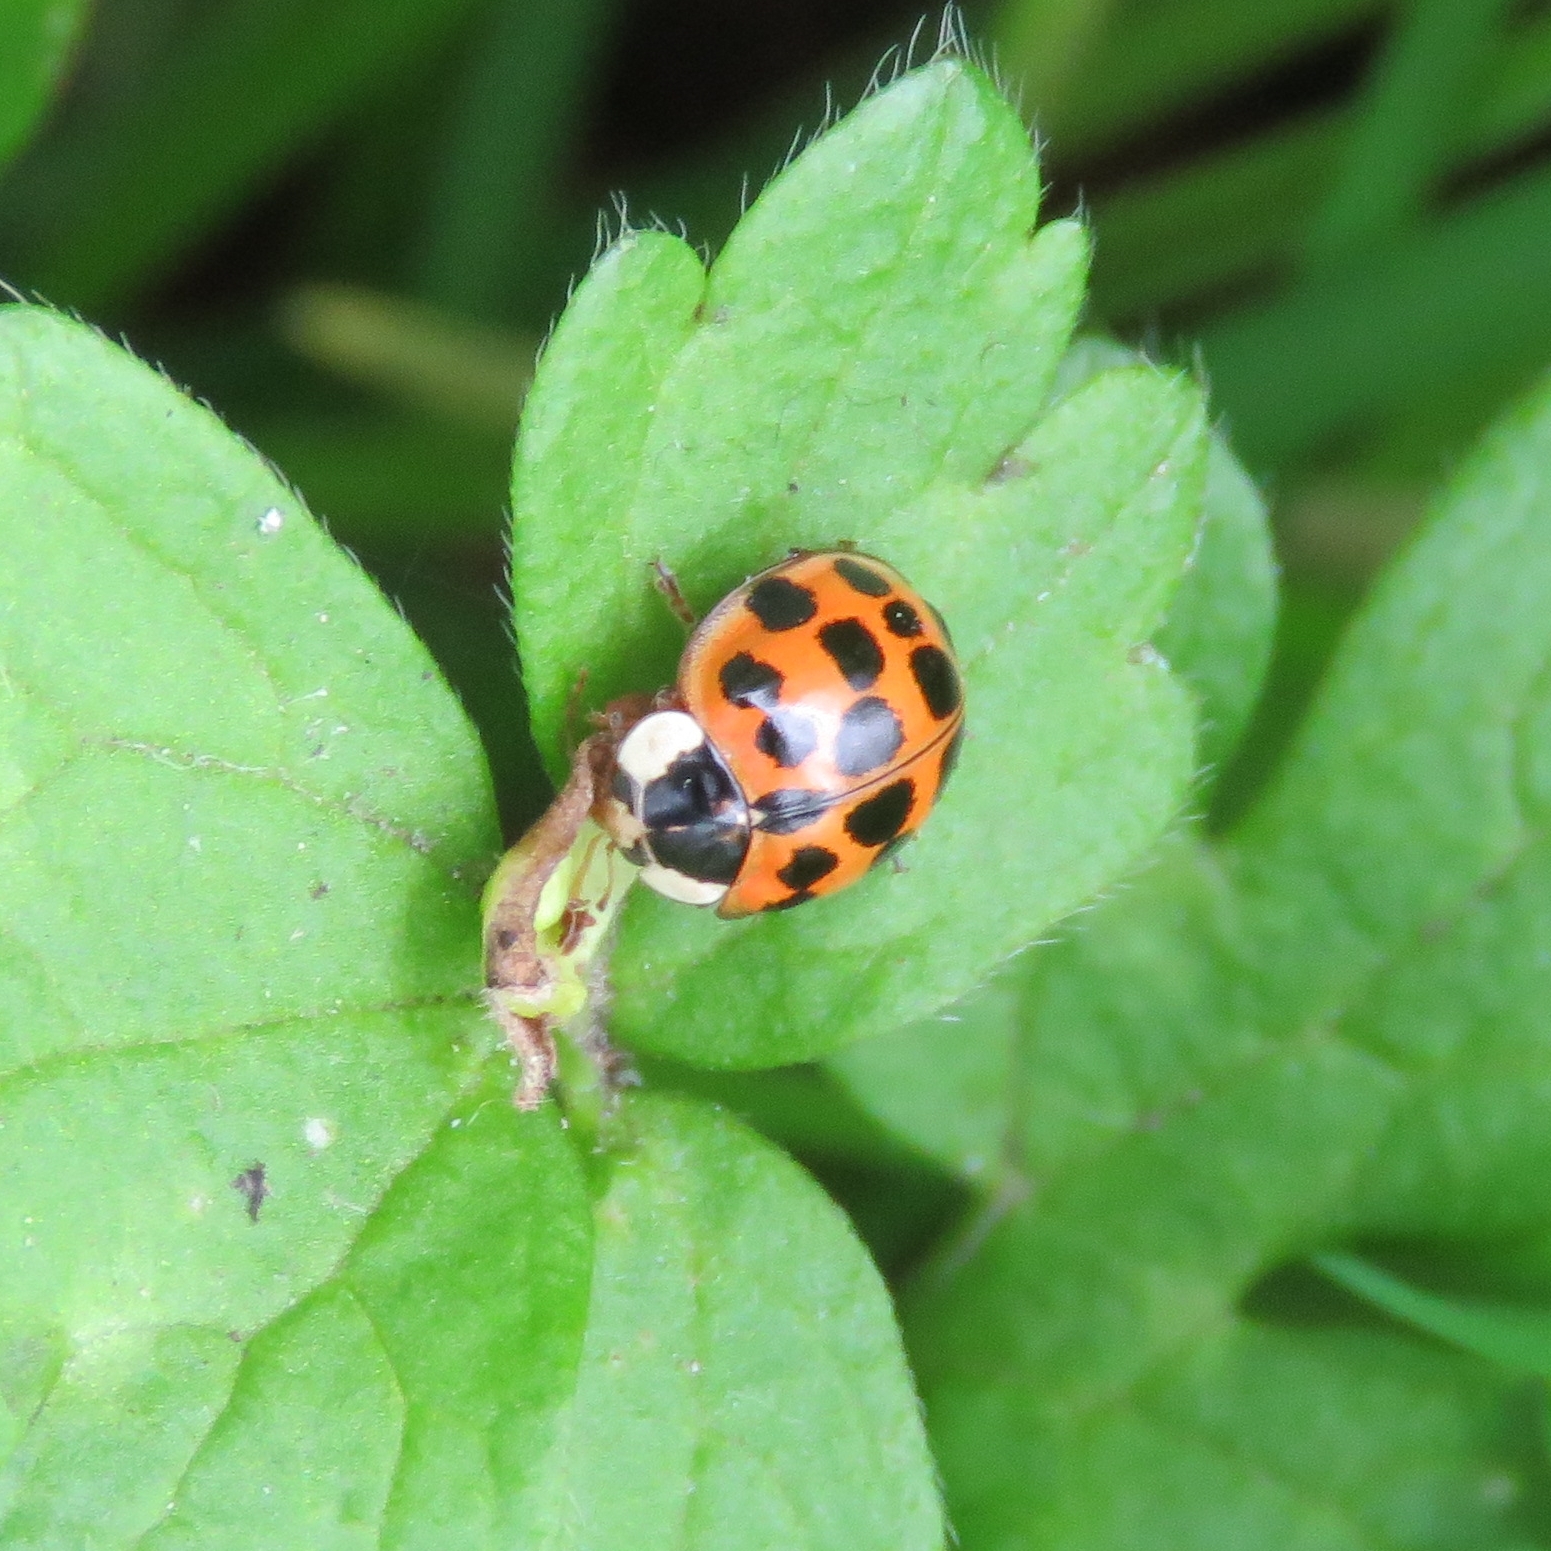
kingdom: Animalia
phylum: Arthropoda
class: Insecta
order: Coleoptera
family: Coccinellidae
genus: Harmonia
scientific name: Harmonia axyridis
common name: Harlequin ladybird
